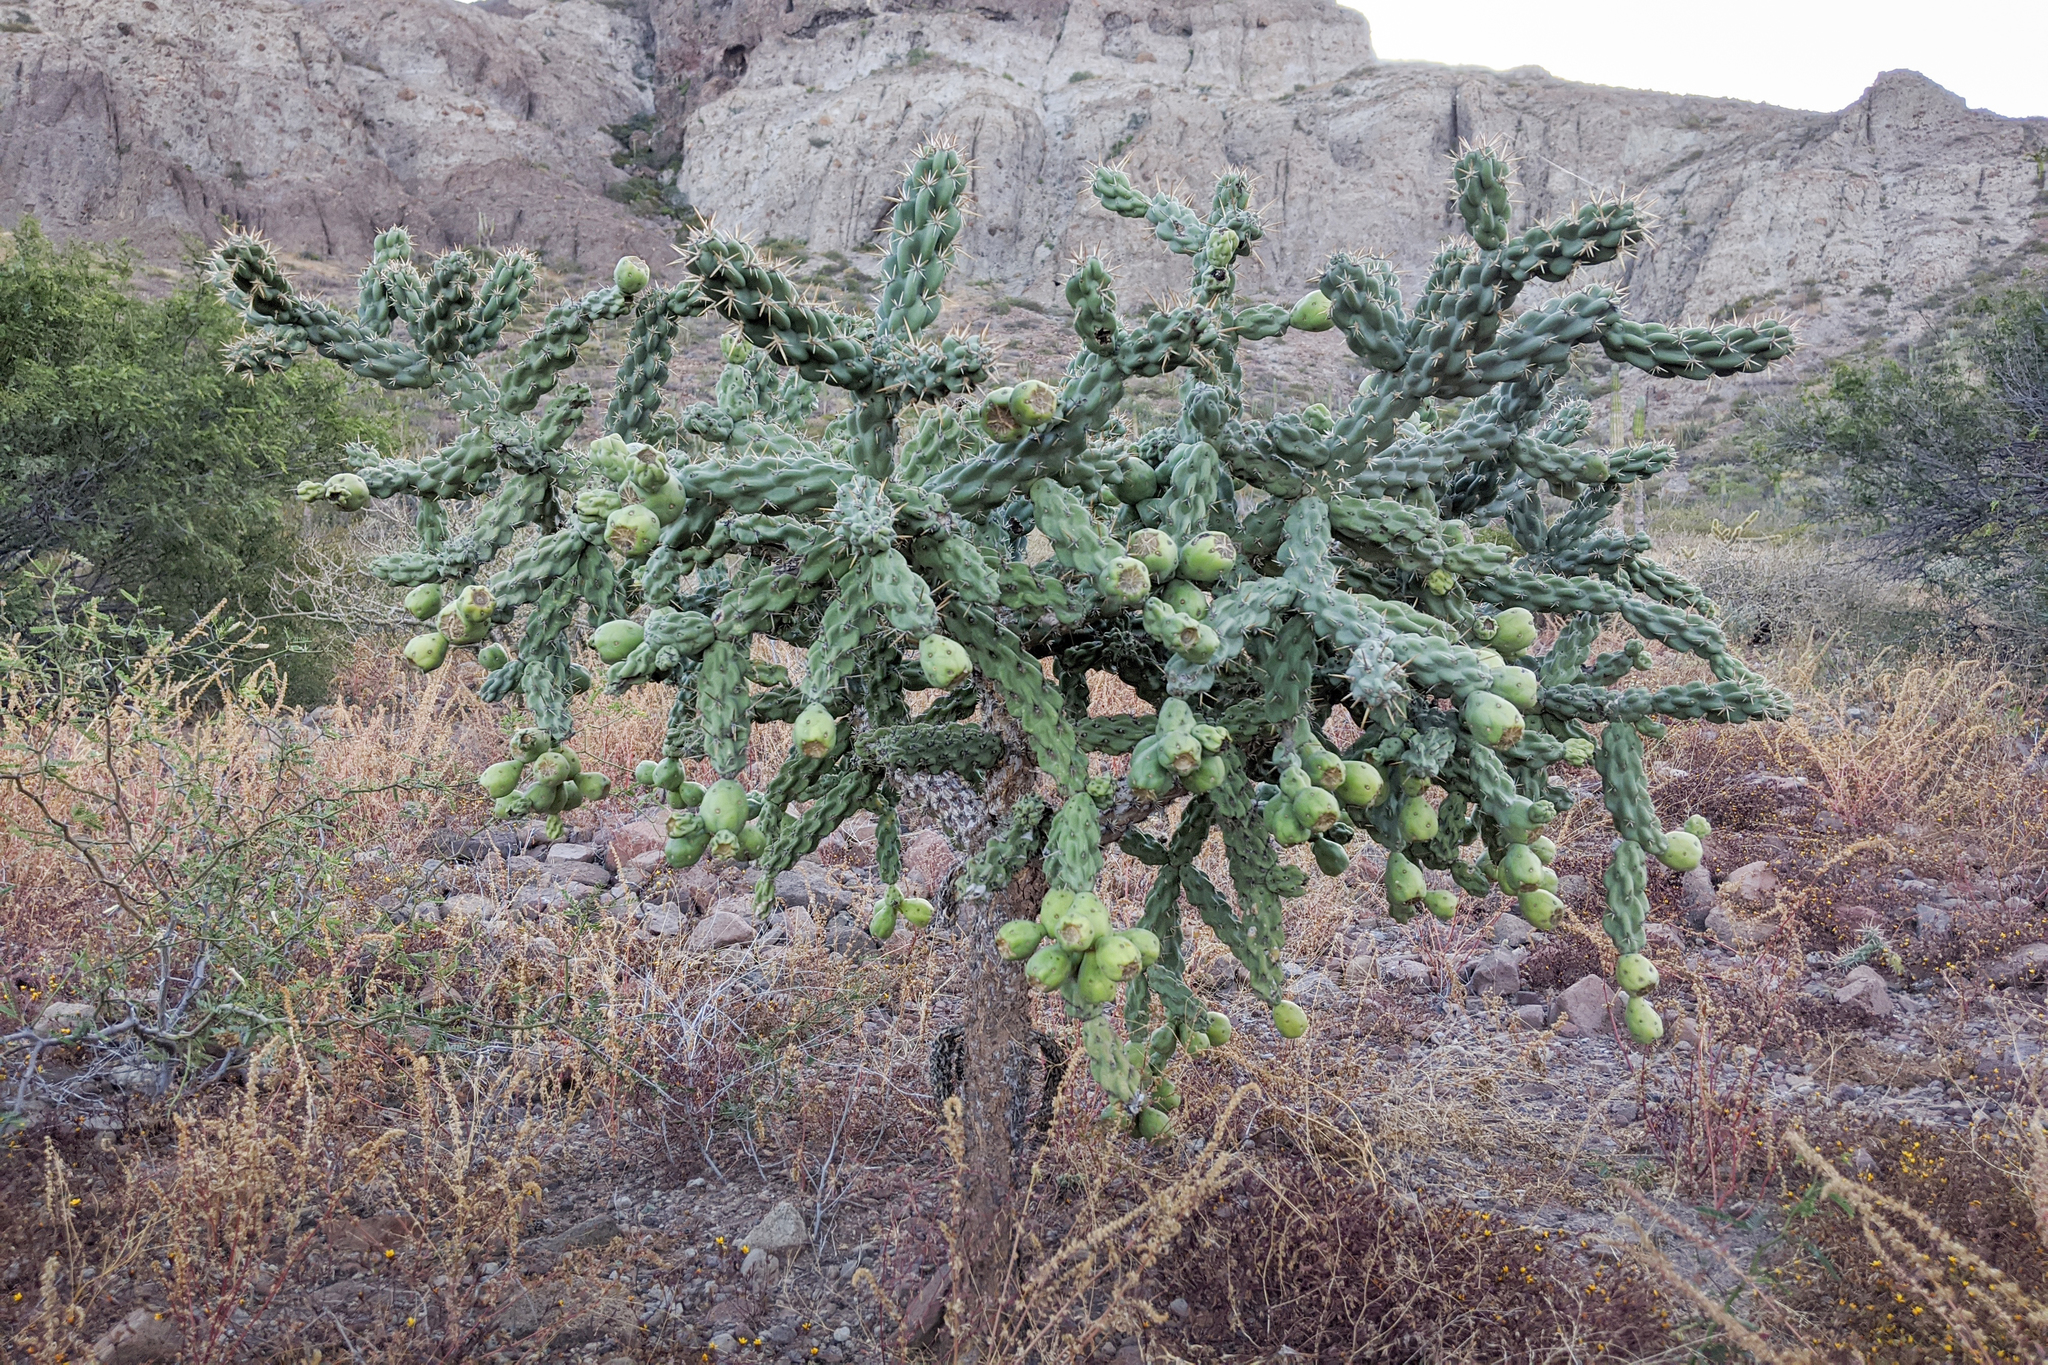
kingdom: Plantae
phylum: Tracheophyta
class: Magnoliopsida
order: Caryophyllales
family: Cactaceae
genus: Cylindropuntia
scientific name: Cylindropuntia cholla
